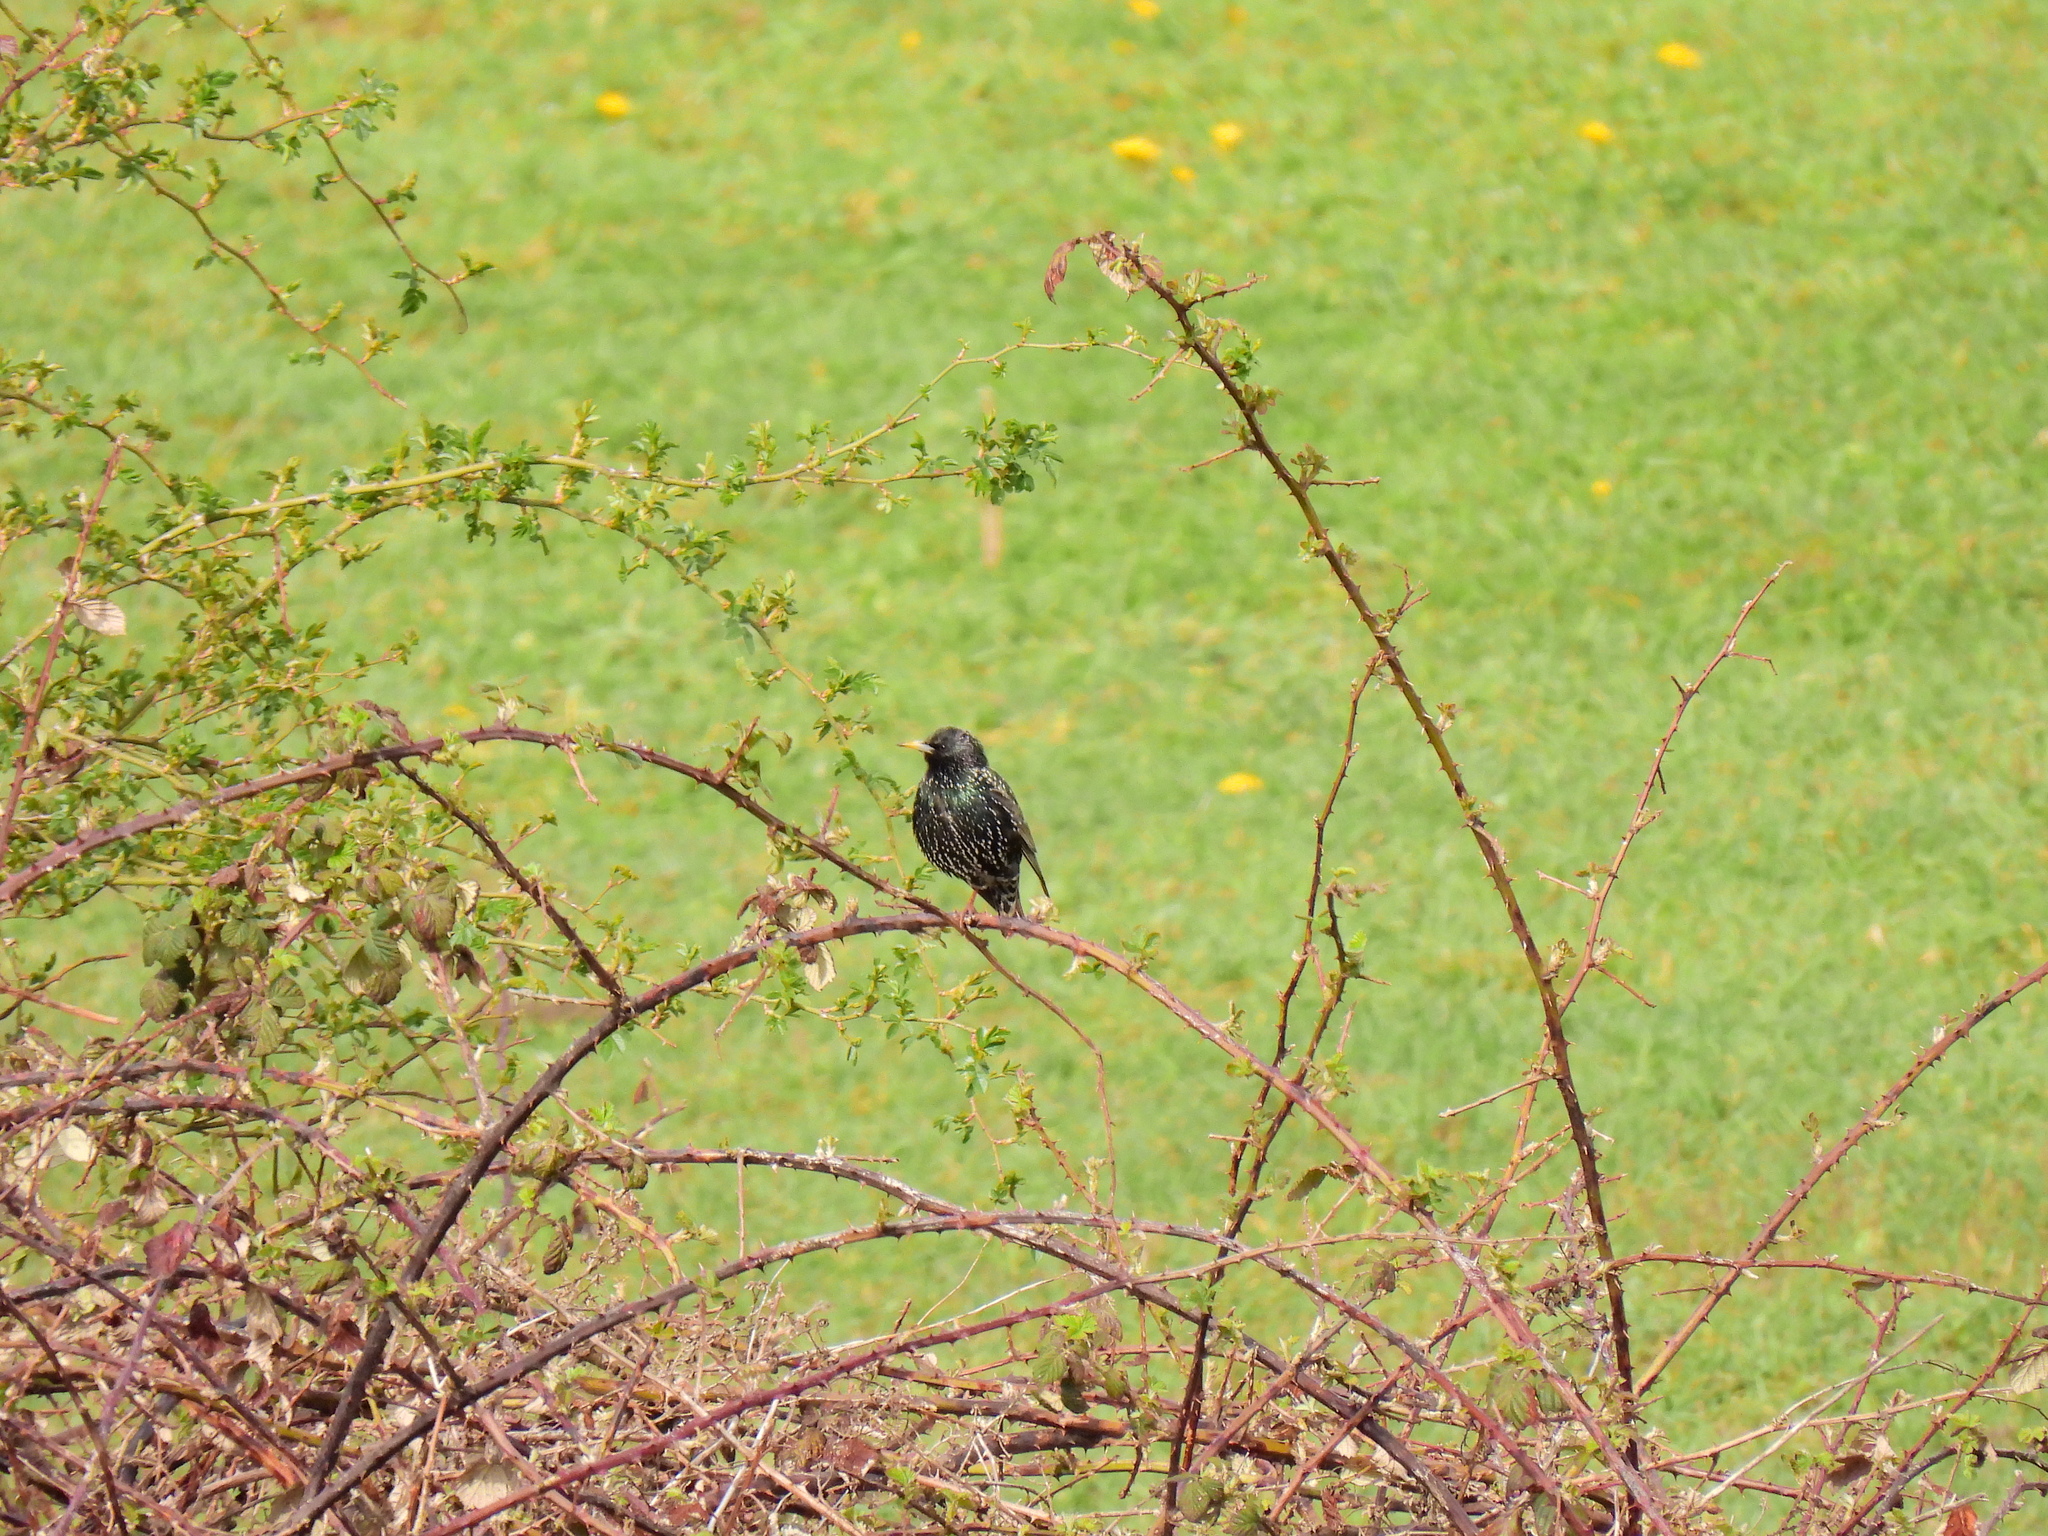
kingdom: Animalia
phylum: Chordata
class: Aves
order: Passeriformes
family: Sturnidae
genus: Sturnus
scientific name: Sturnus vulgaris
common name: Common starling
